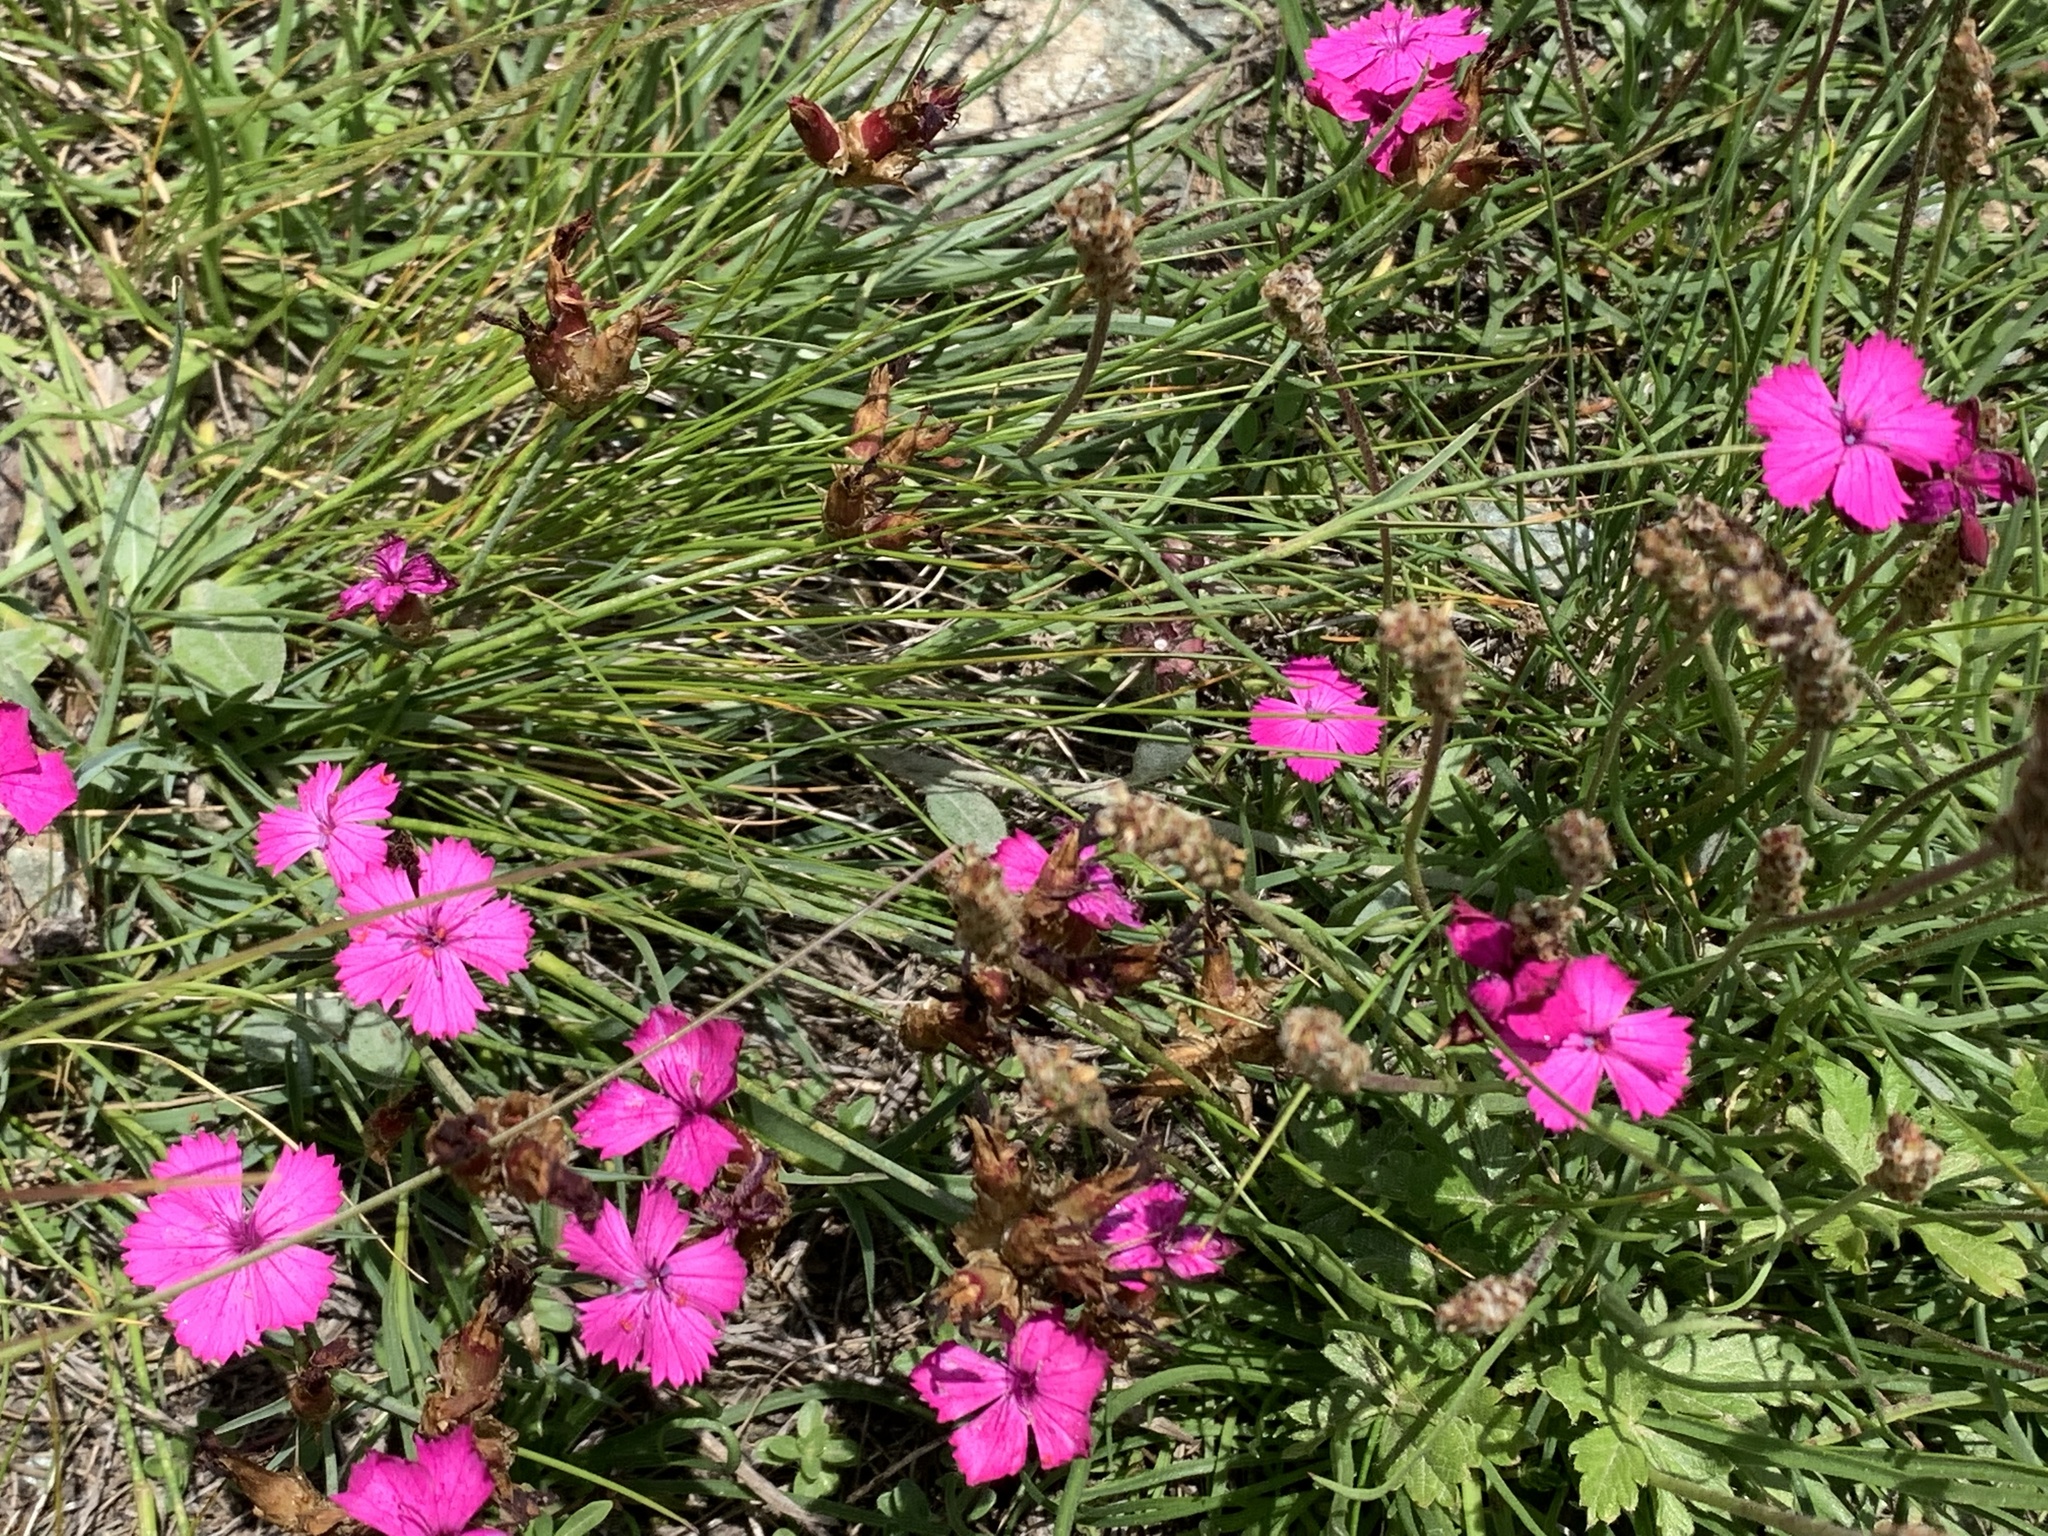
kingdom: Plantae
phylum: Tracheophyta
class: Magnoliopsida
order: Caryophyllales
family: Caryophyllaceae
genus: Dianthus
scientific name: Dianthus carthusianorum
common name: Carthusian pink
